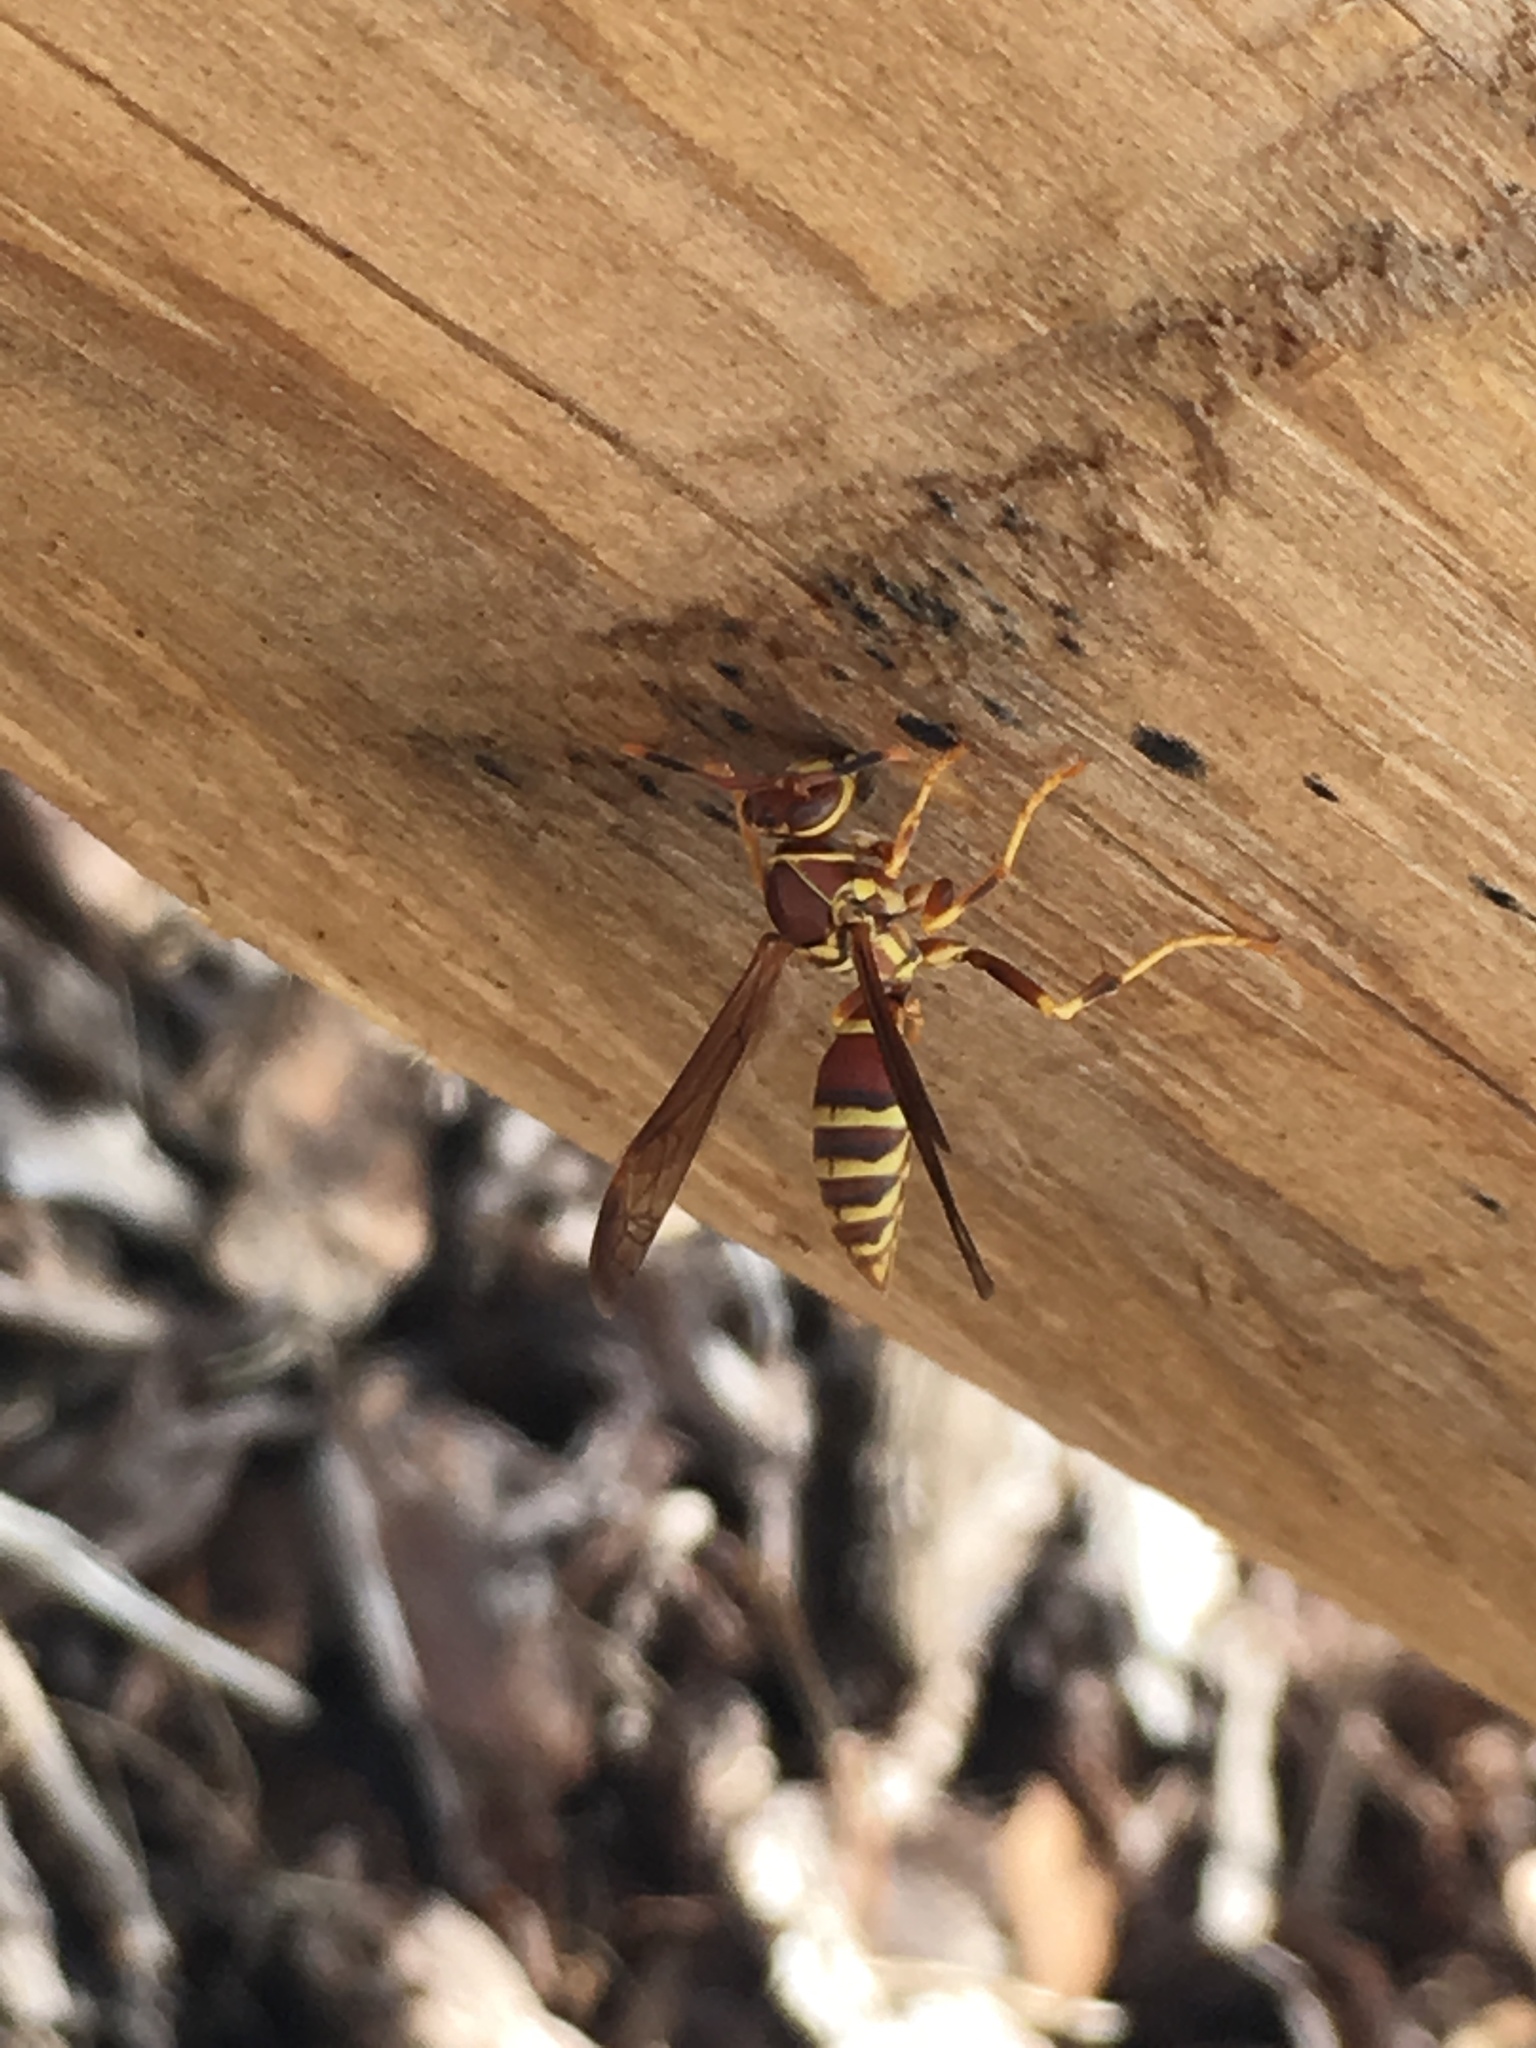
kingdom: Animalia
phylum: Arthropoda
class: Insecta
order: Hymenoptera
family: Eumenidae
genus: Polistes
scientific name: Polistes exclamans
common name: Paper wasp
